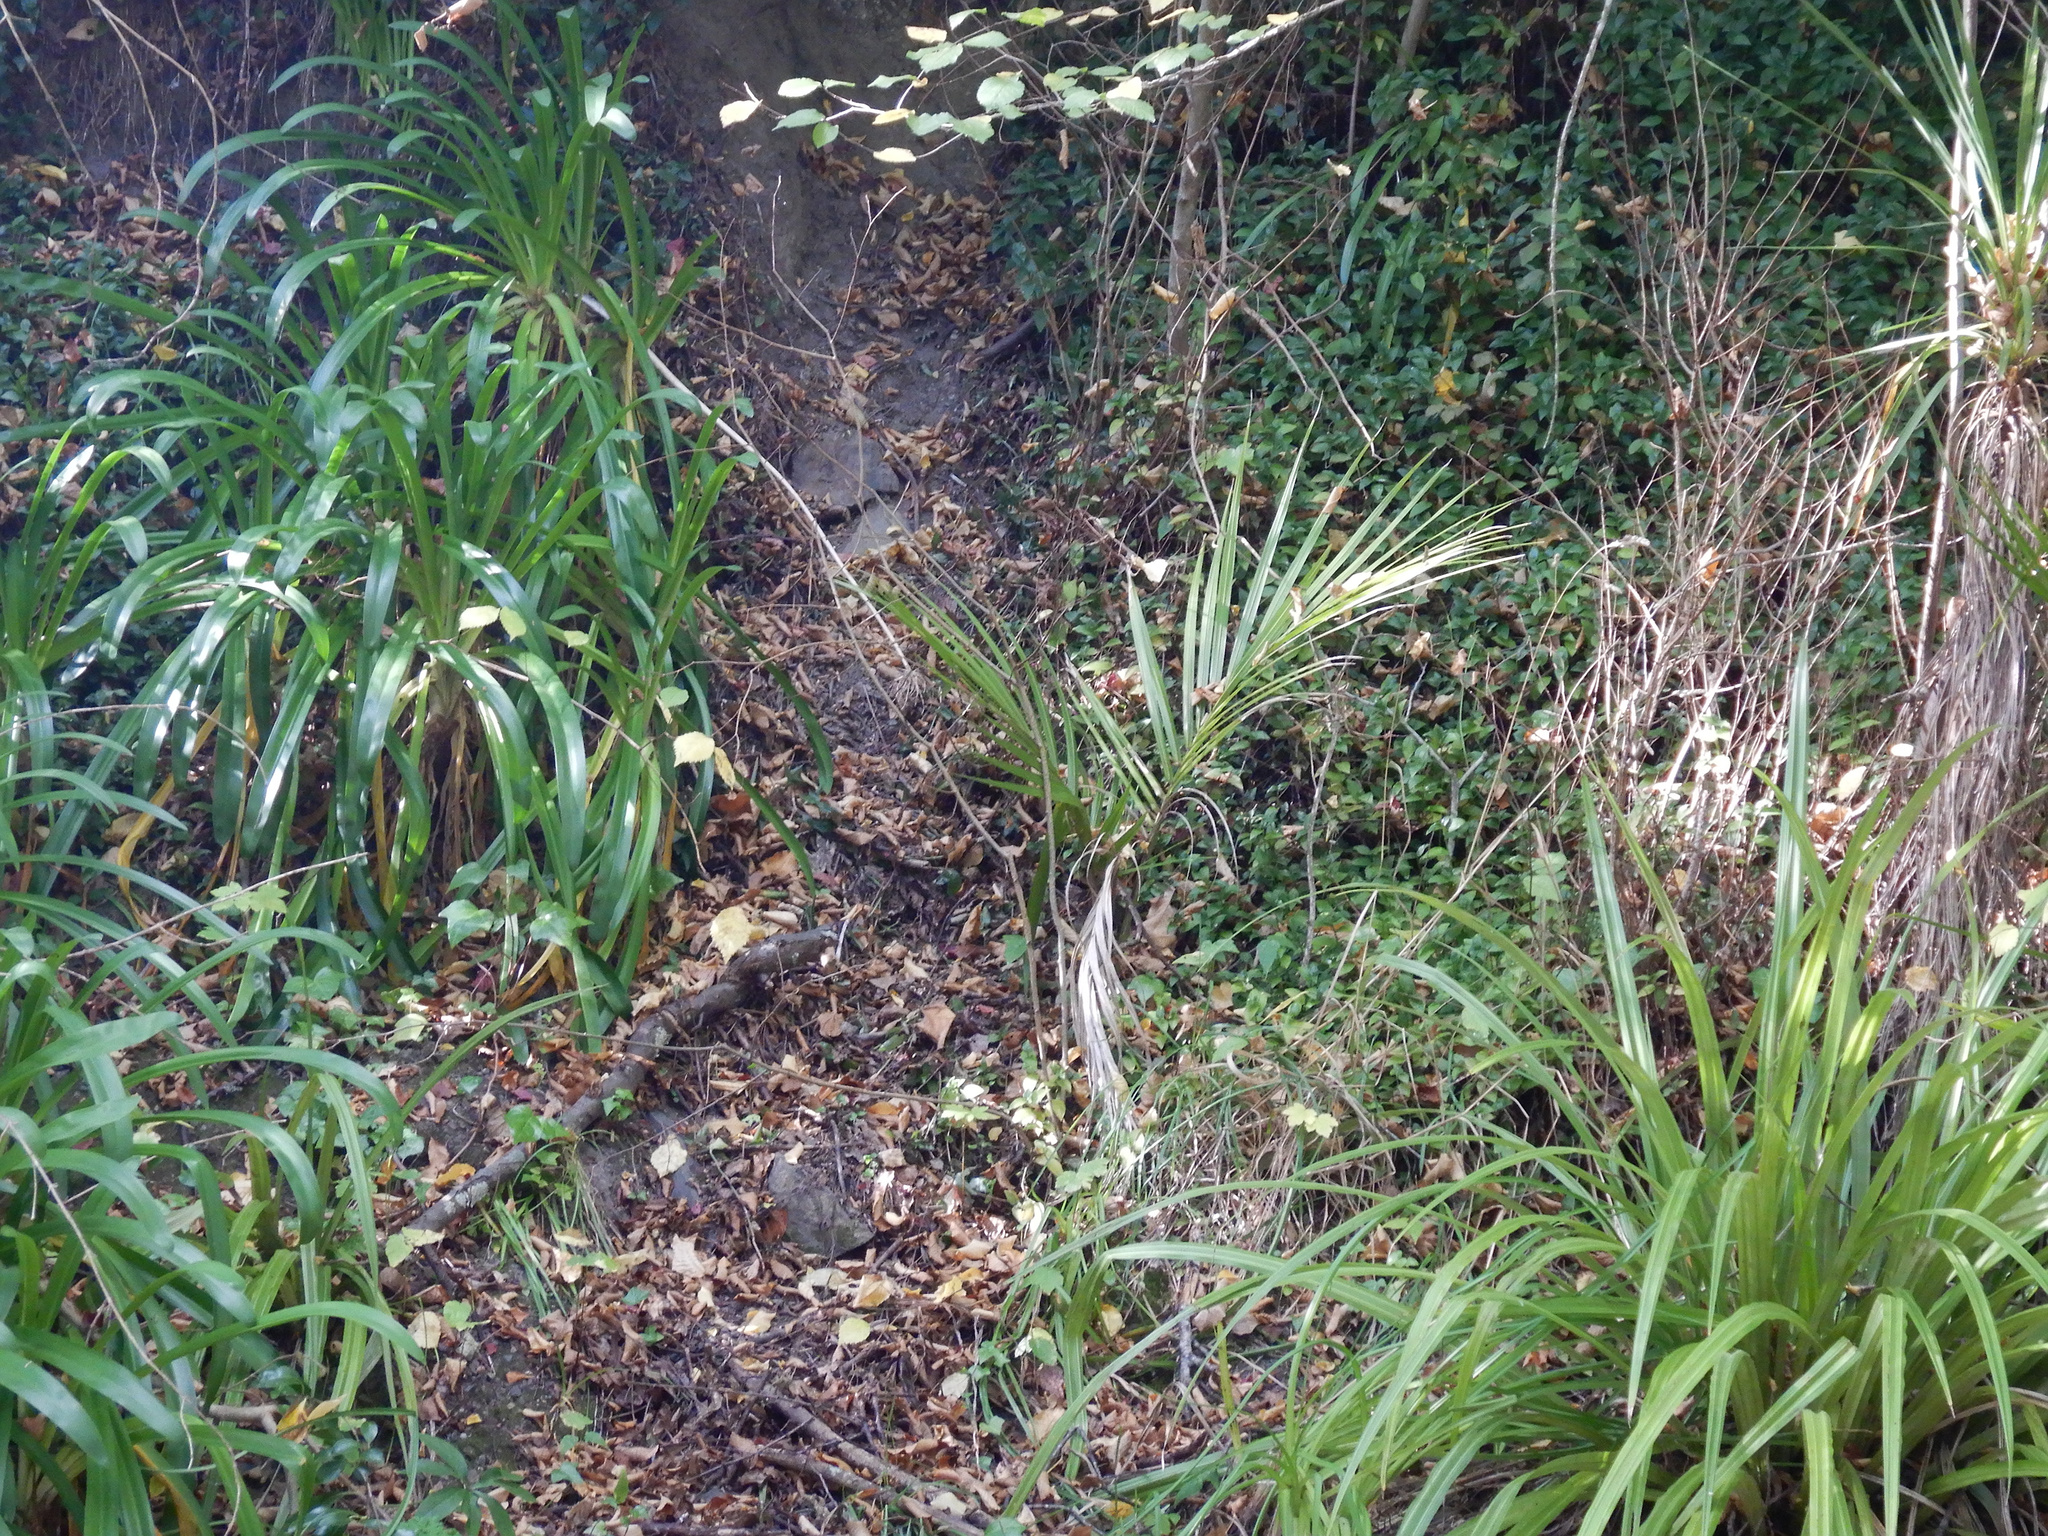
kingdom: Plantae
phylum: Tracheophyta
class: Liliopsida
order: Arecales
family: Arecaceae
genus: Rhopalostylis
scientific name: Rhopalostylis sapida
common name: Feather-duster palm
